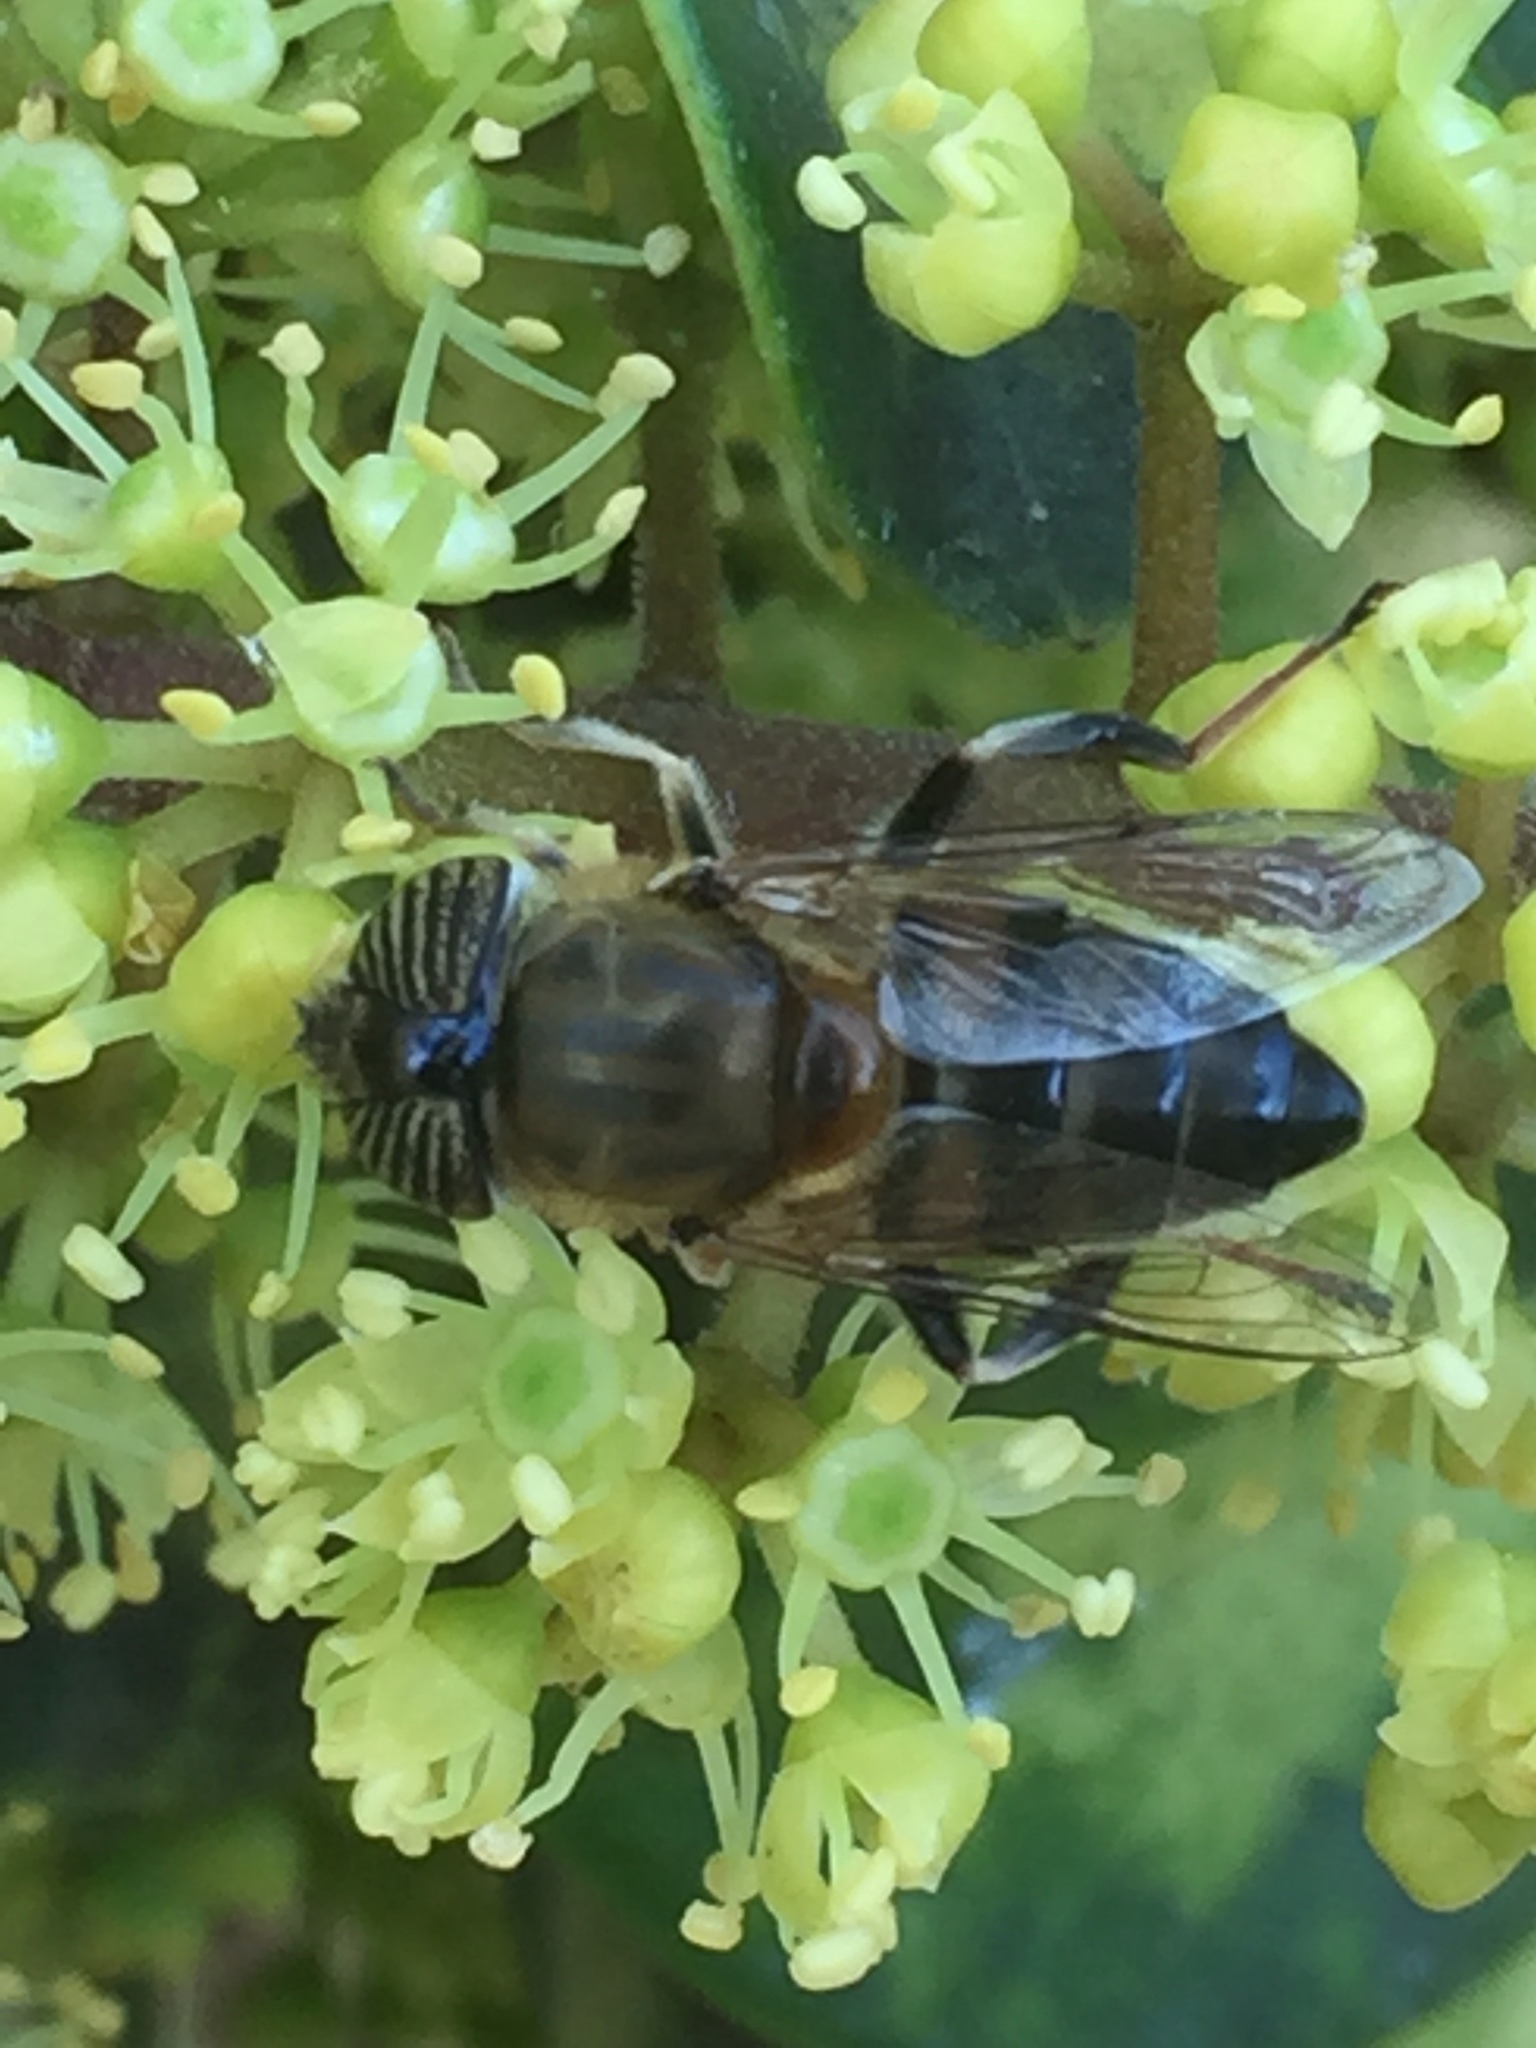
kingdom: Animalia
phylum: Arthropoda
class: Insecta
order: Diptera
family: Syrphidae
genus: Eristalinus
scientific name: Eristalinus taeniops
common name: Syrphid fly
